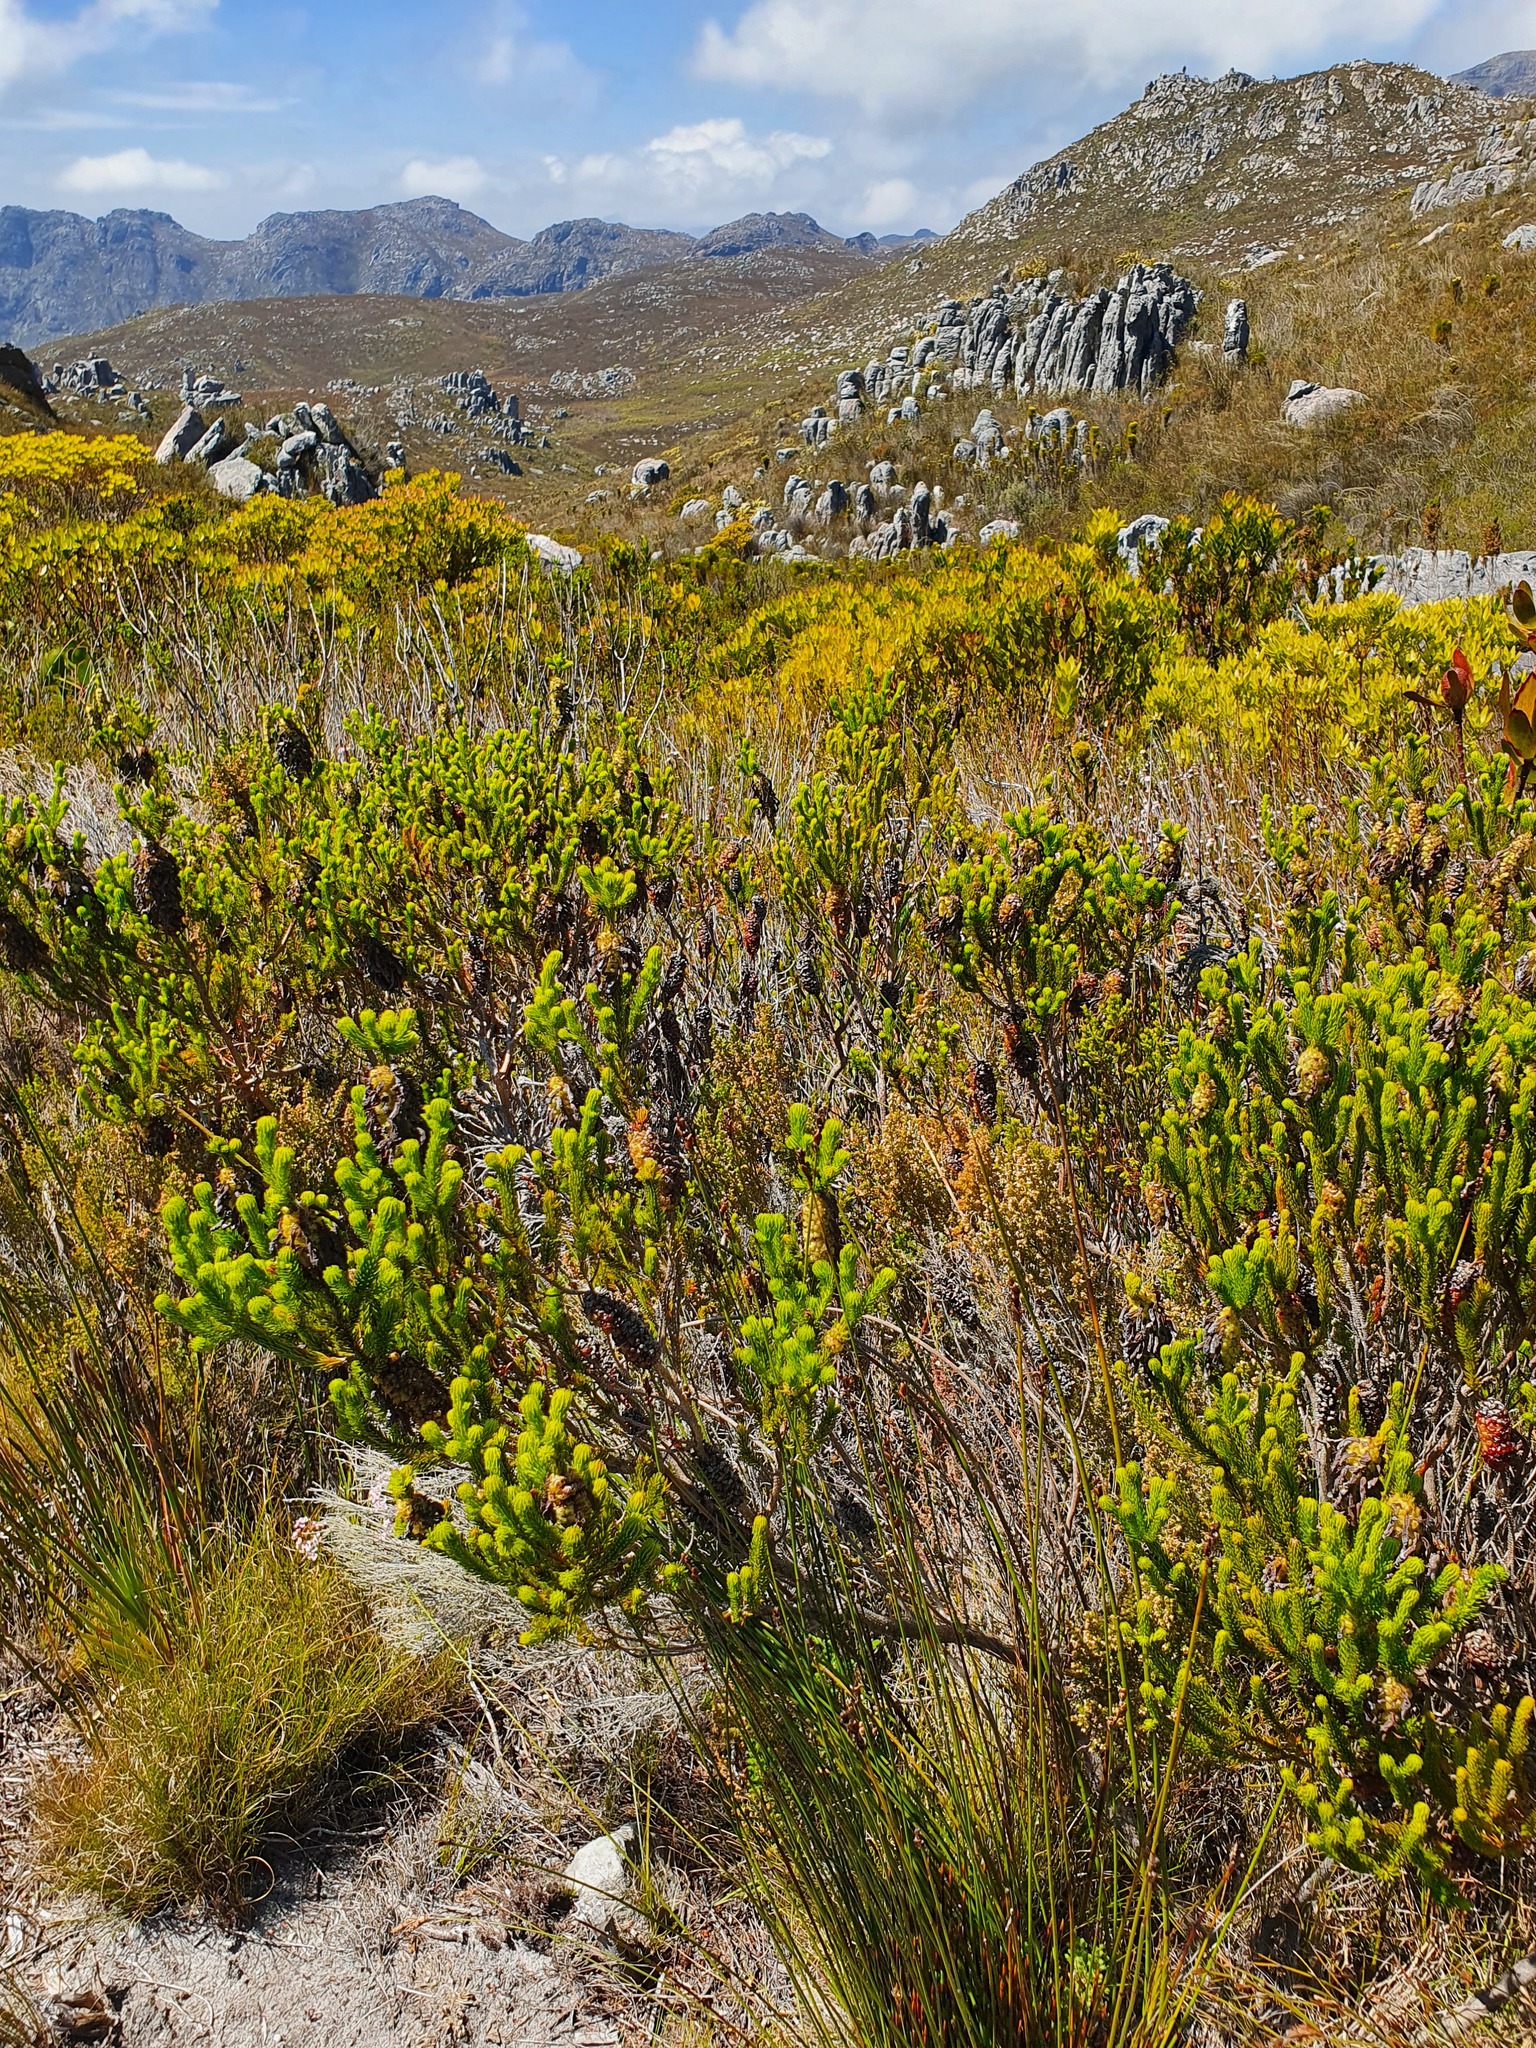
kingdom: Plantae
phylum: Tracheophyta
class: Magnoliopsida
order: Ericales
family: Ericaceae
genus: Erica
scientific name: Erica sessiliflora
